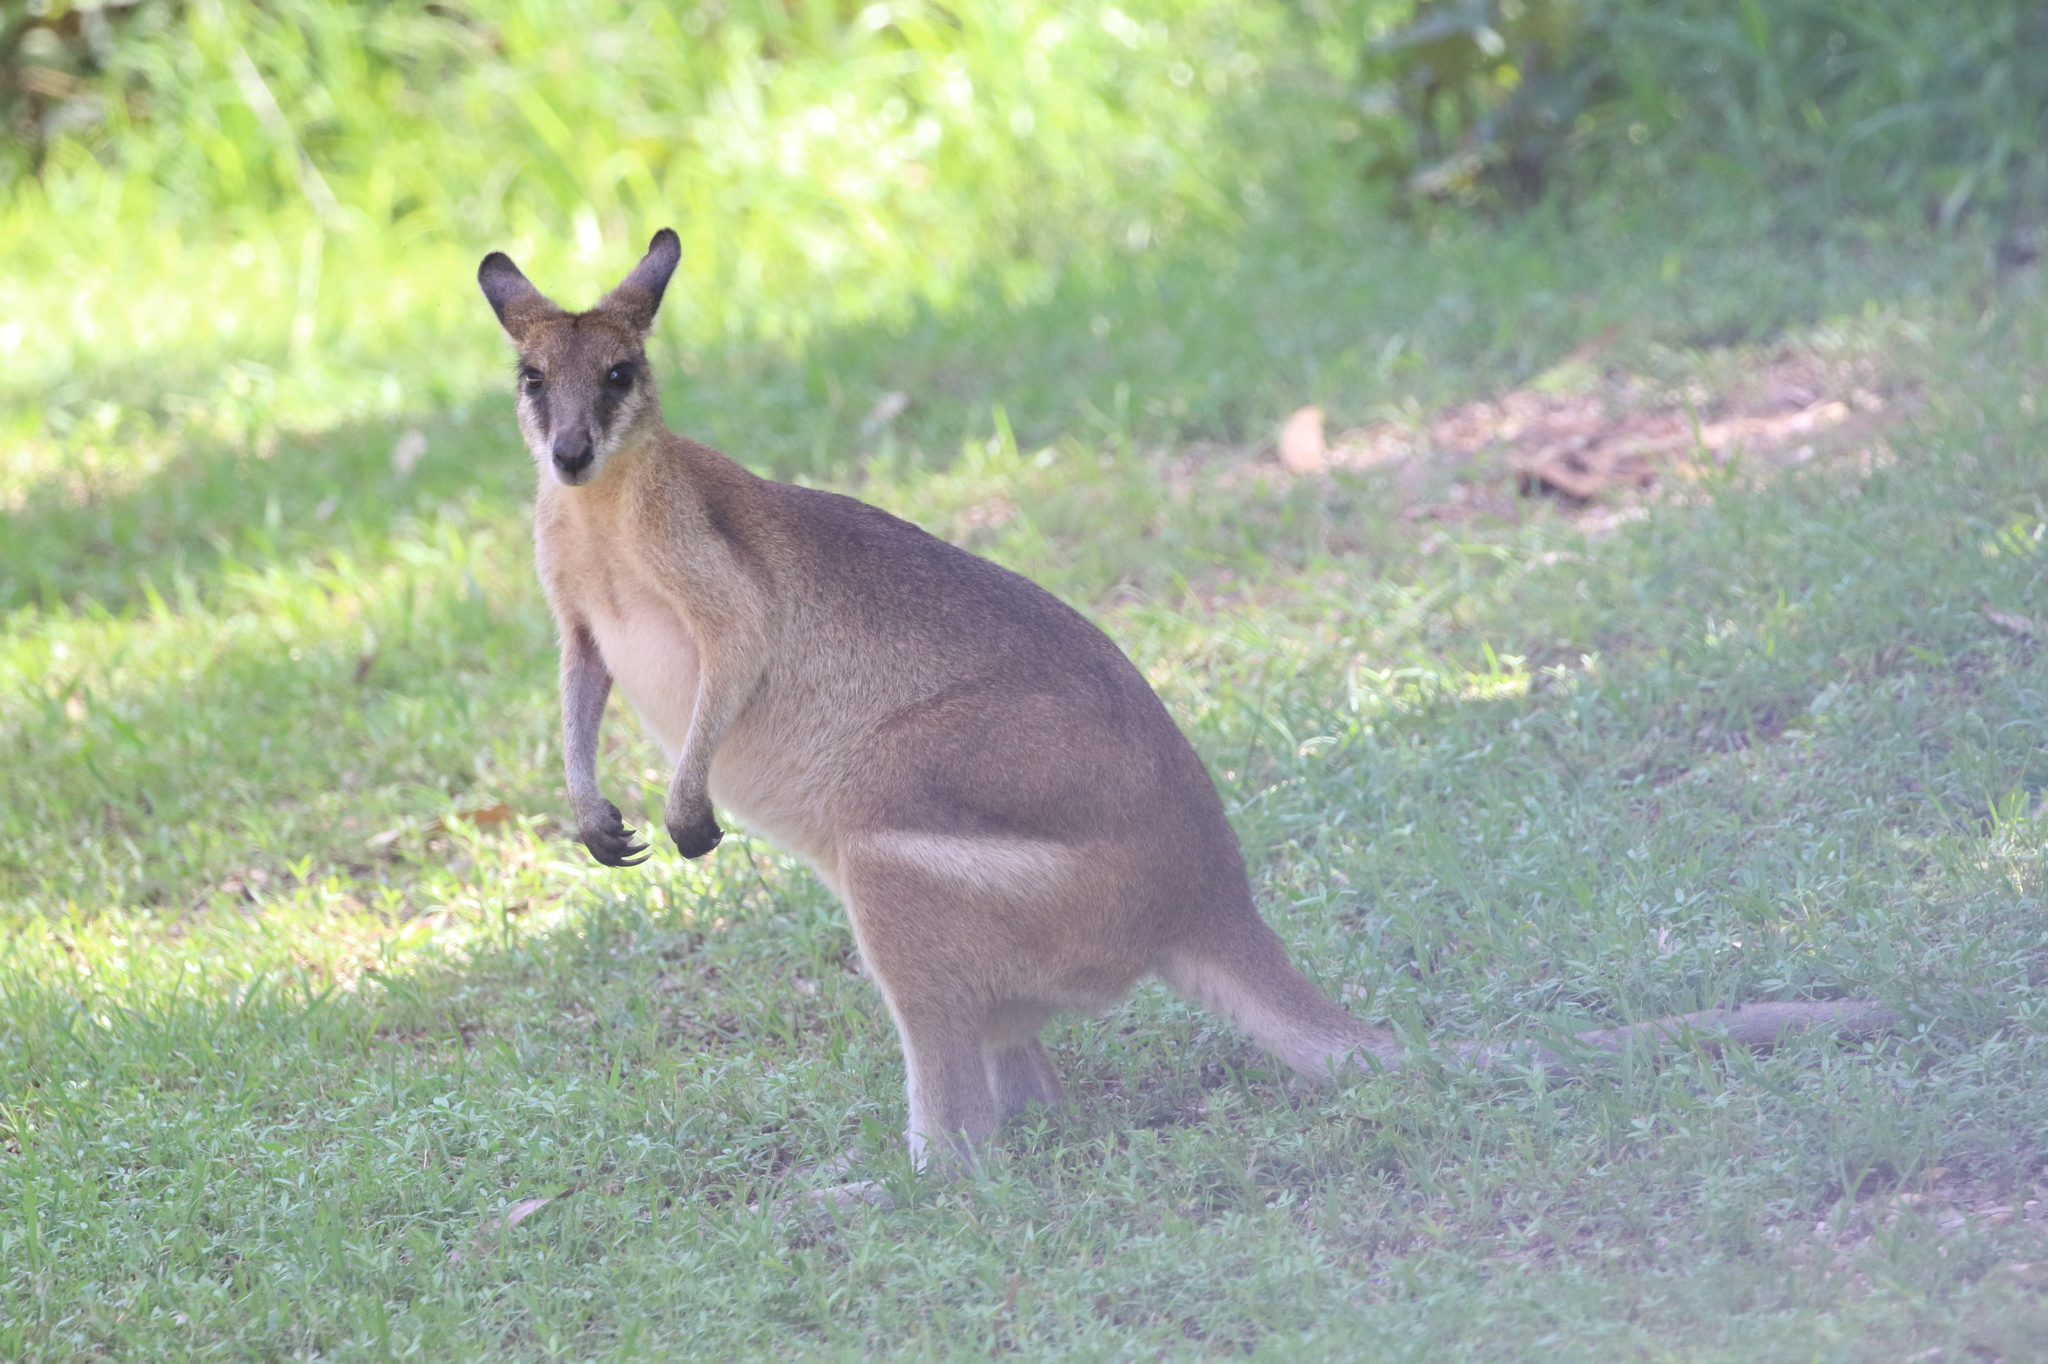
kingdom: Animalia
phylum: Chordata
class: Mammalia
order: Diprotodontia
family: Macropodidae
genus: Macropus
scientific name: Macropus agilis
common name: Agile wallaby
